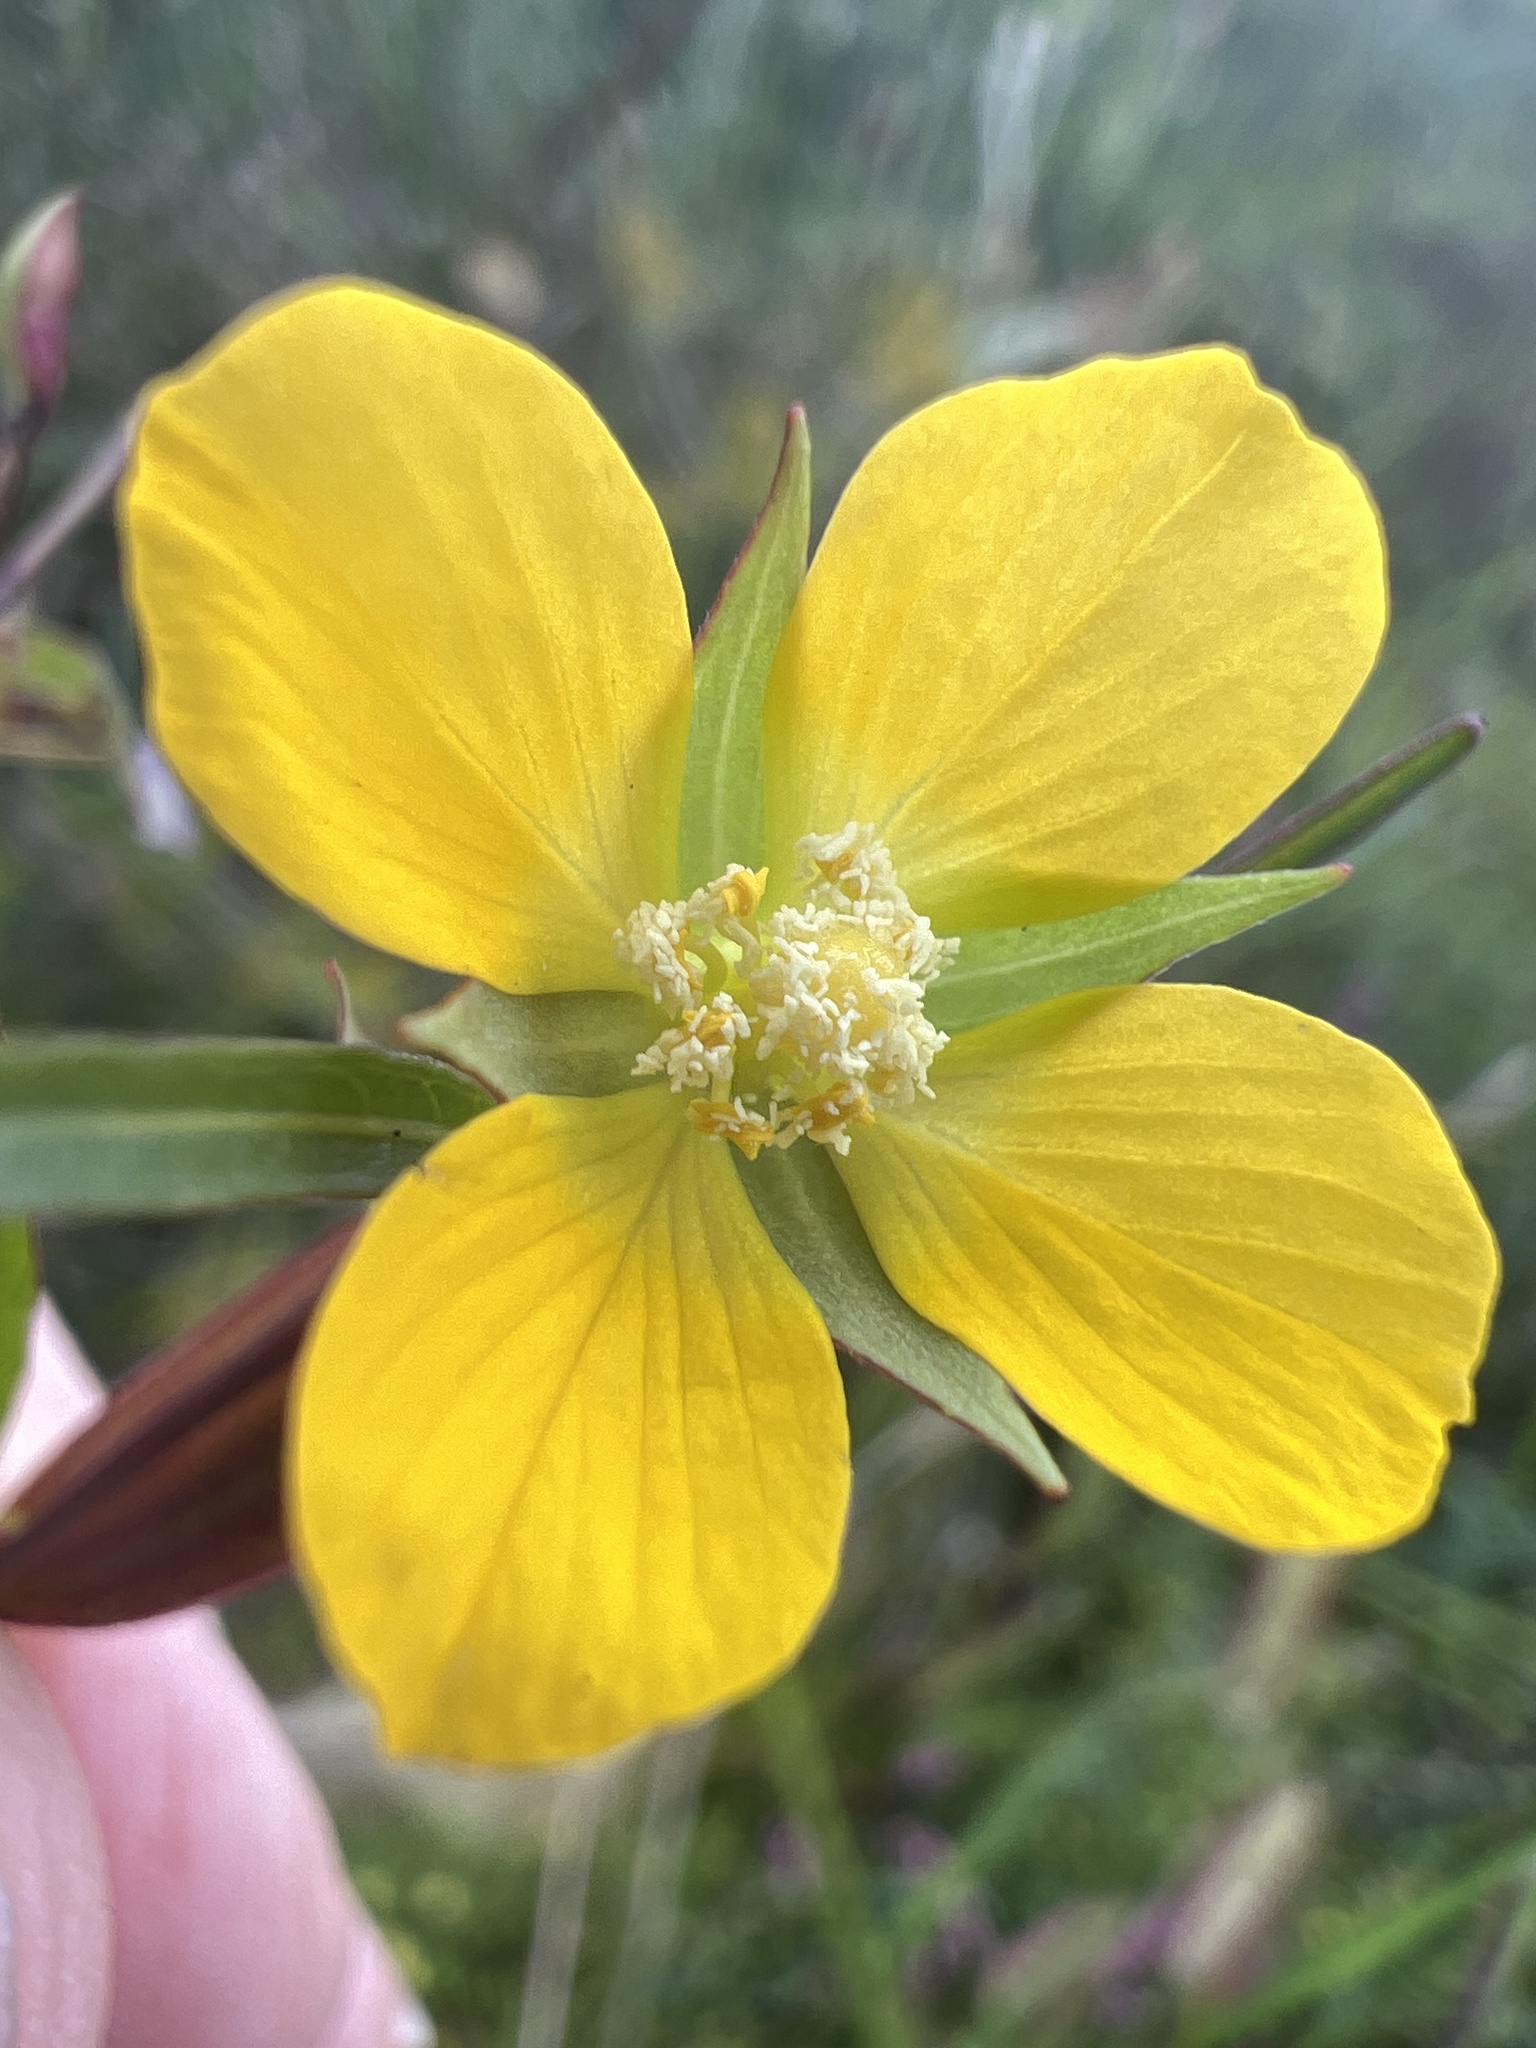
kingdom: Plantae
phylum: Tracheophyta
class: Magnoliopsida
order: Myrtales
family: Onagraceae
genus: Ludwigia
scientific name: Ludwigia decurrens
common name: Winged water-primrose
